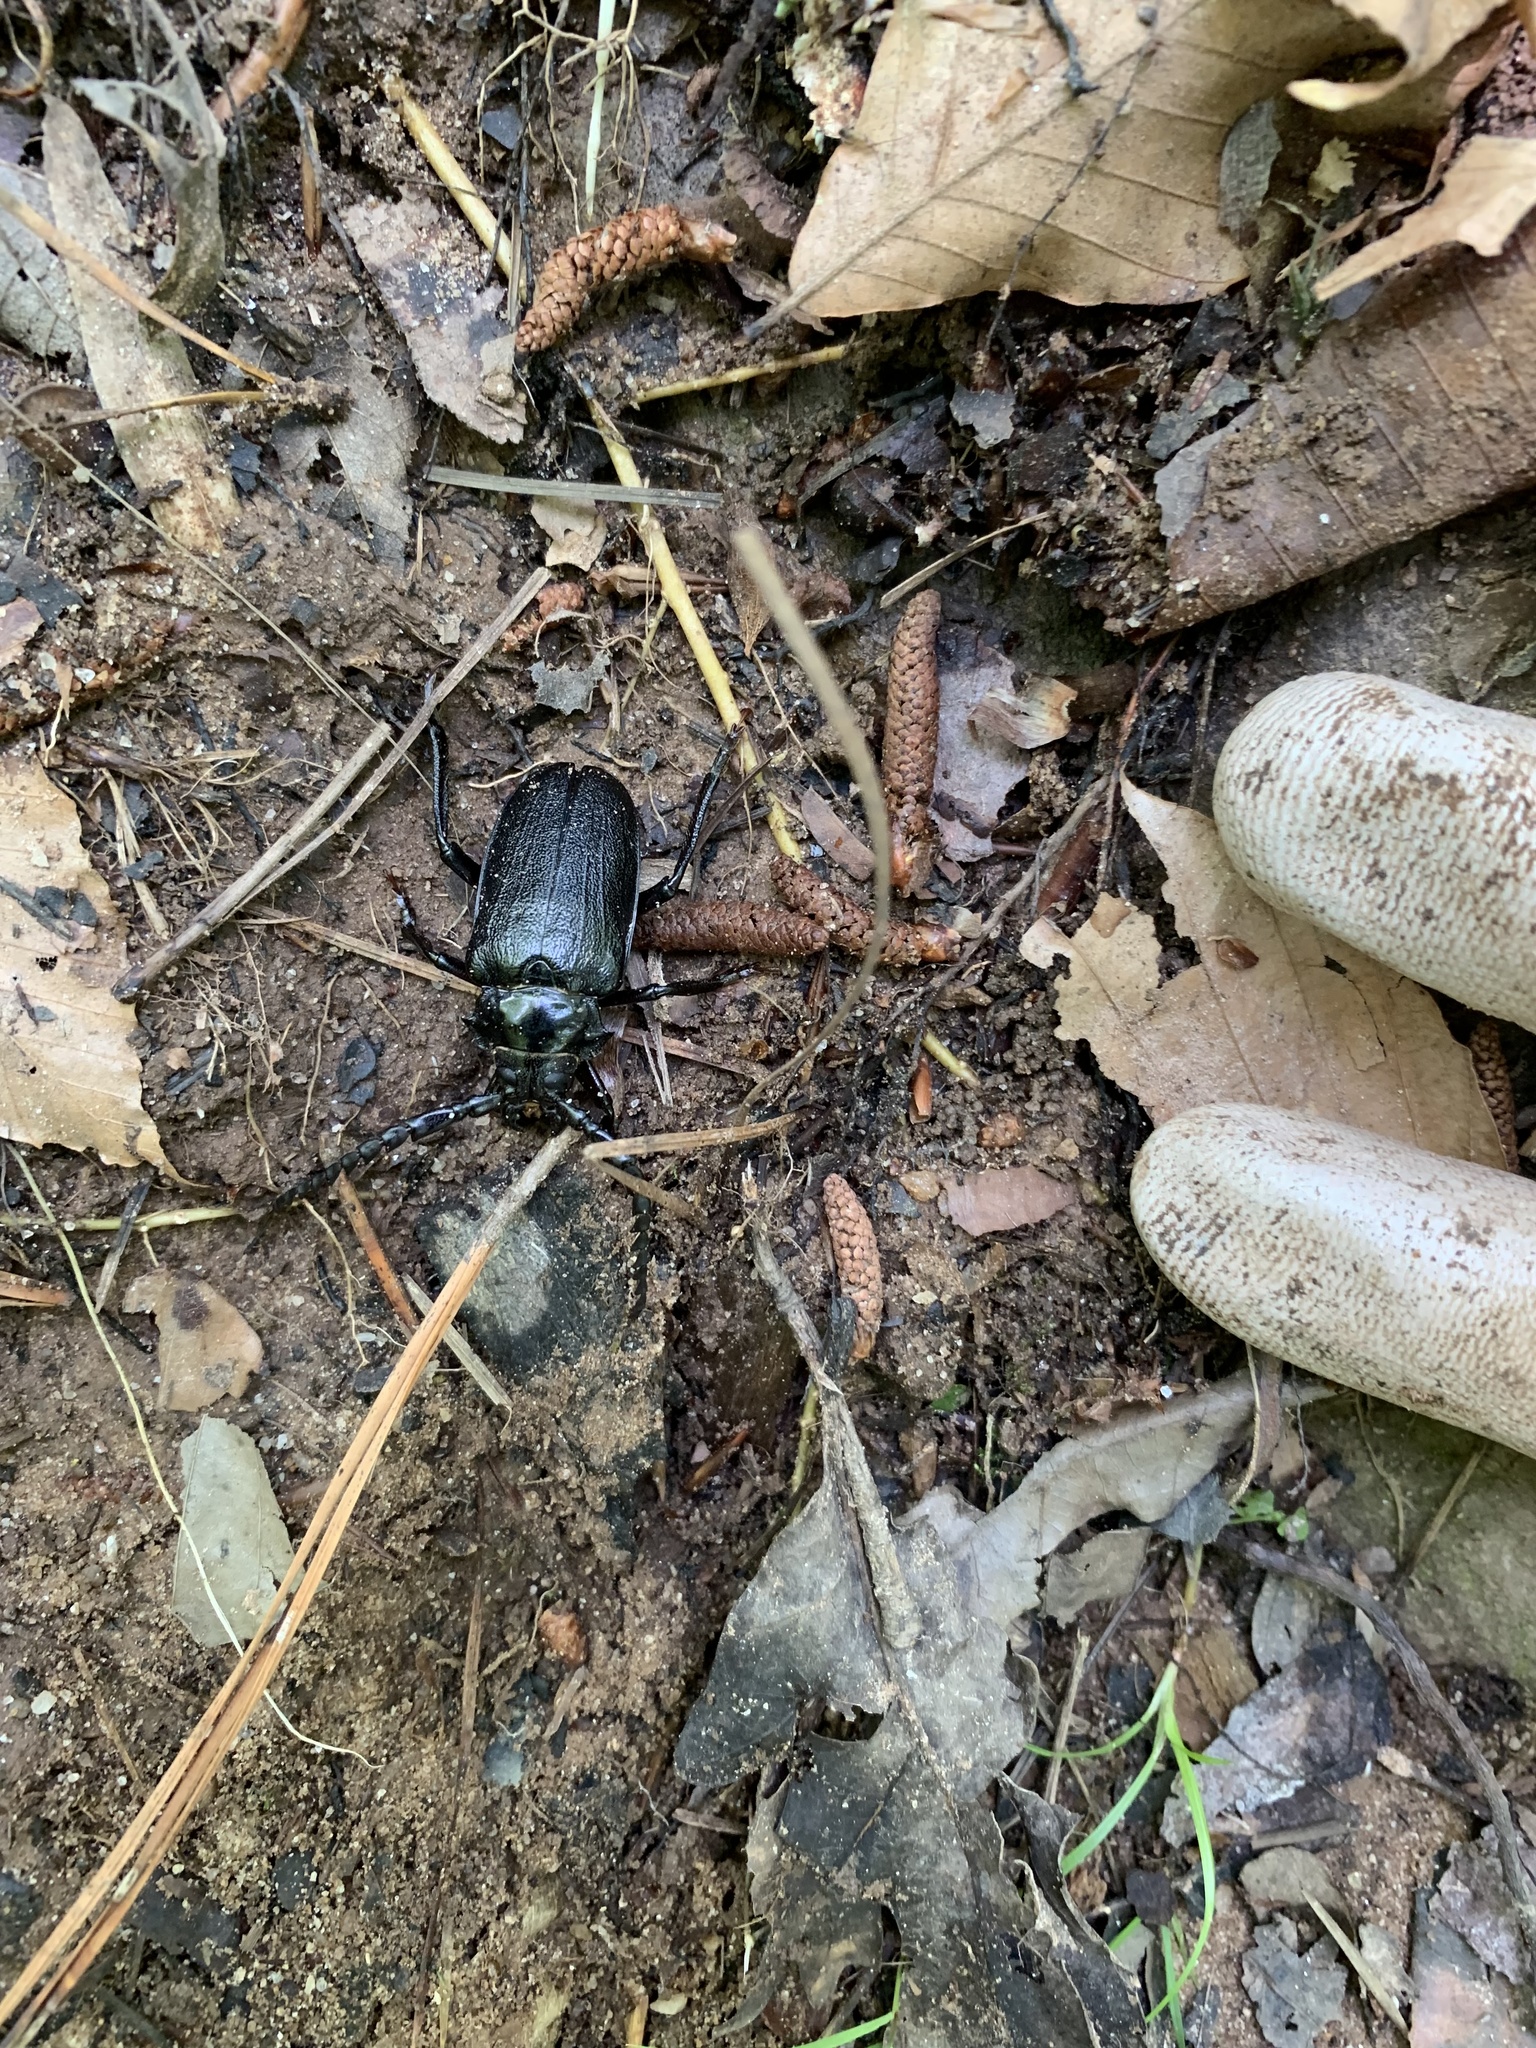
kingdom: Animalia
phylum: Arthropoda
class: Insecta
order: Coleoptera
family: Cerambycidae
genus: Prionus
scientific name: Prionus laticollis
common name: Broad necked prionus
